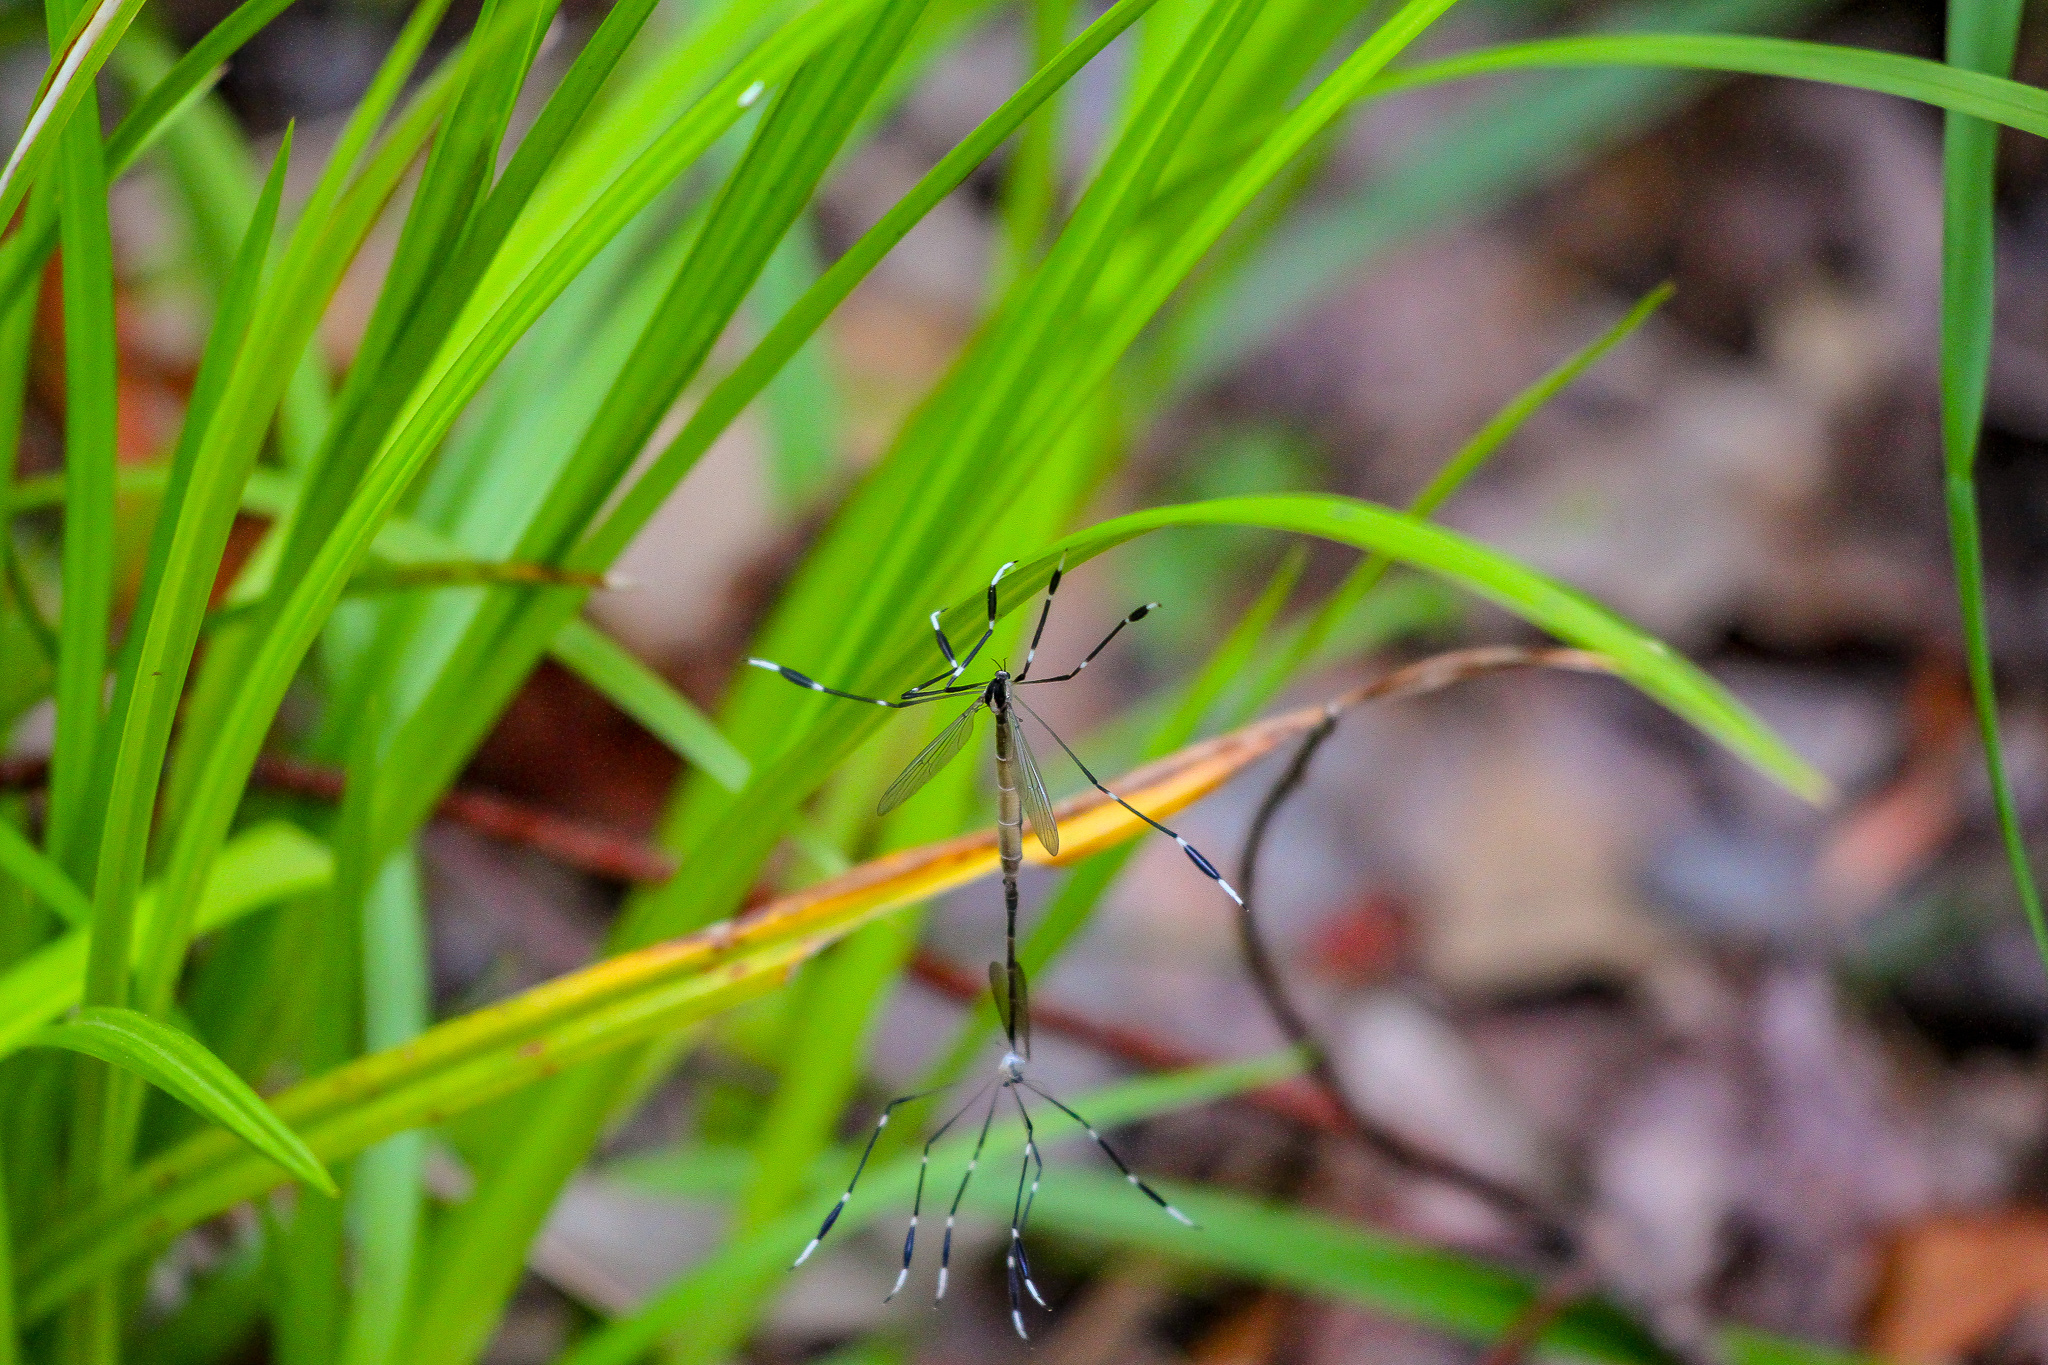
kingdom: Animalia
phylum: Arthropoda
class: Insecta
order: Diptera
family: Ptychopteridae
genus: Bittacomorpha
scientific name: Bittacomorpha clavipes
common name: Eastern phantom crane fly
